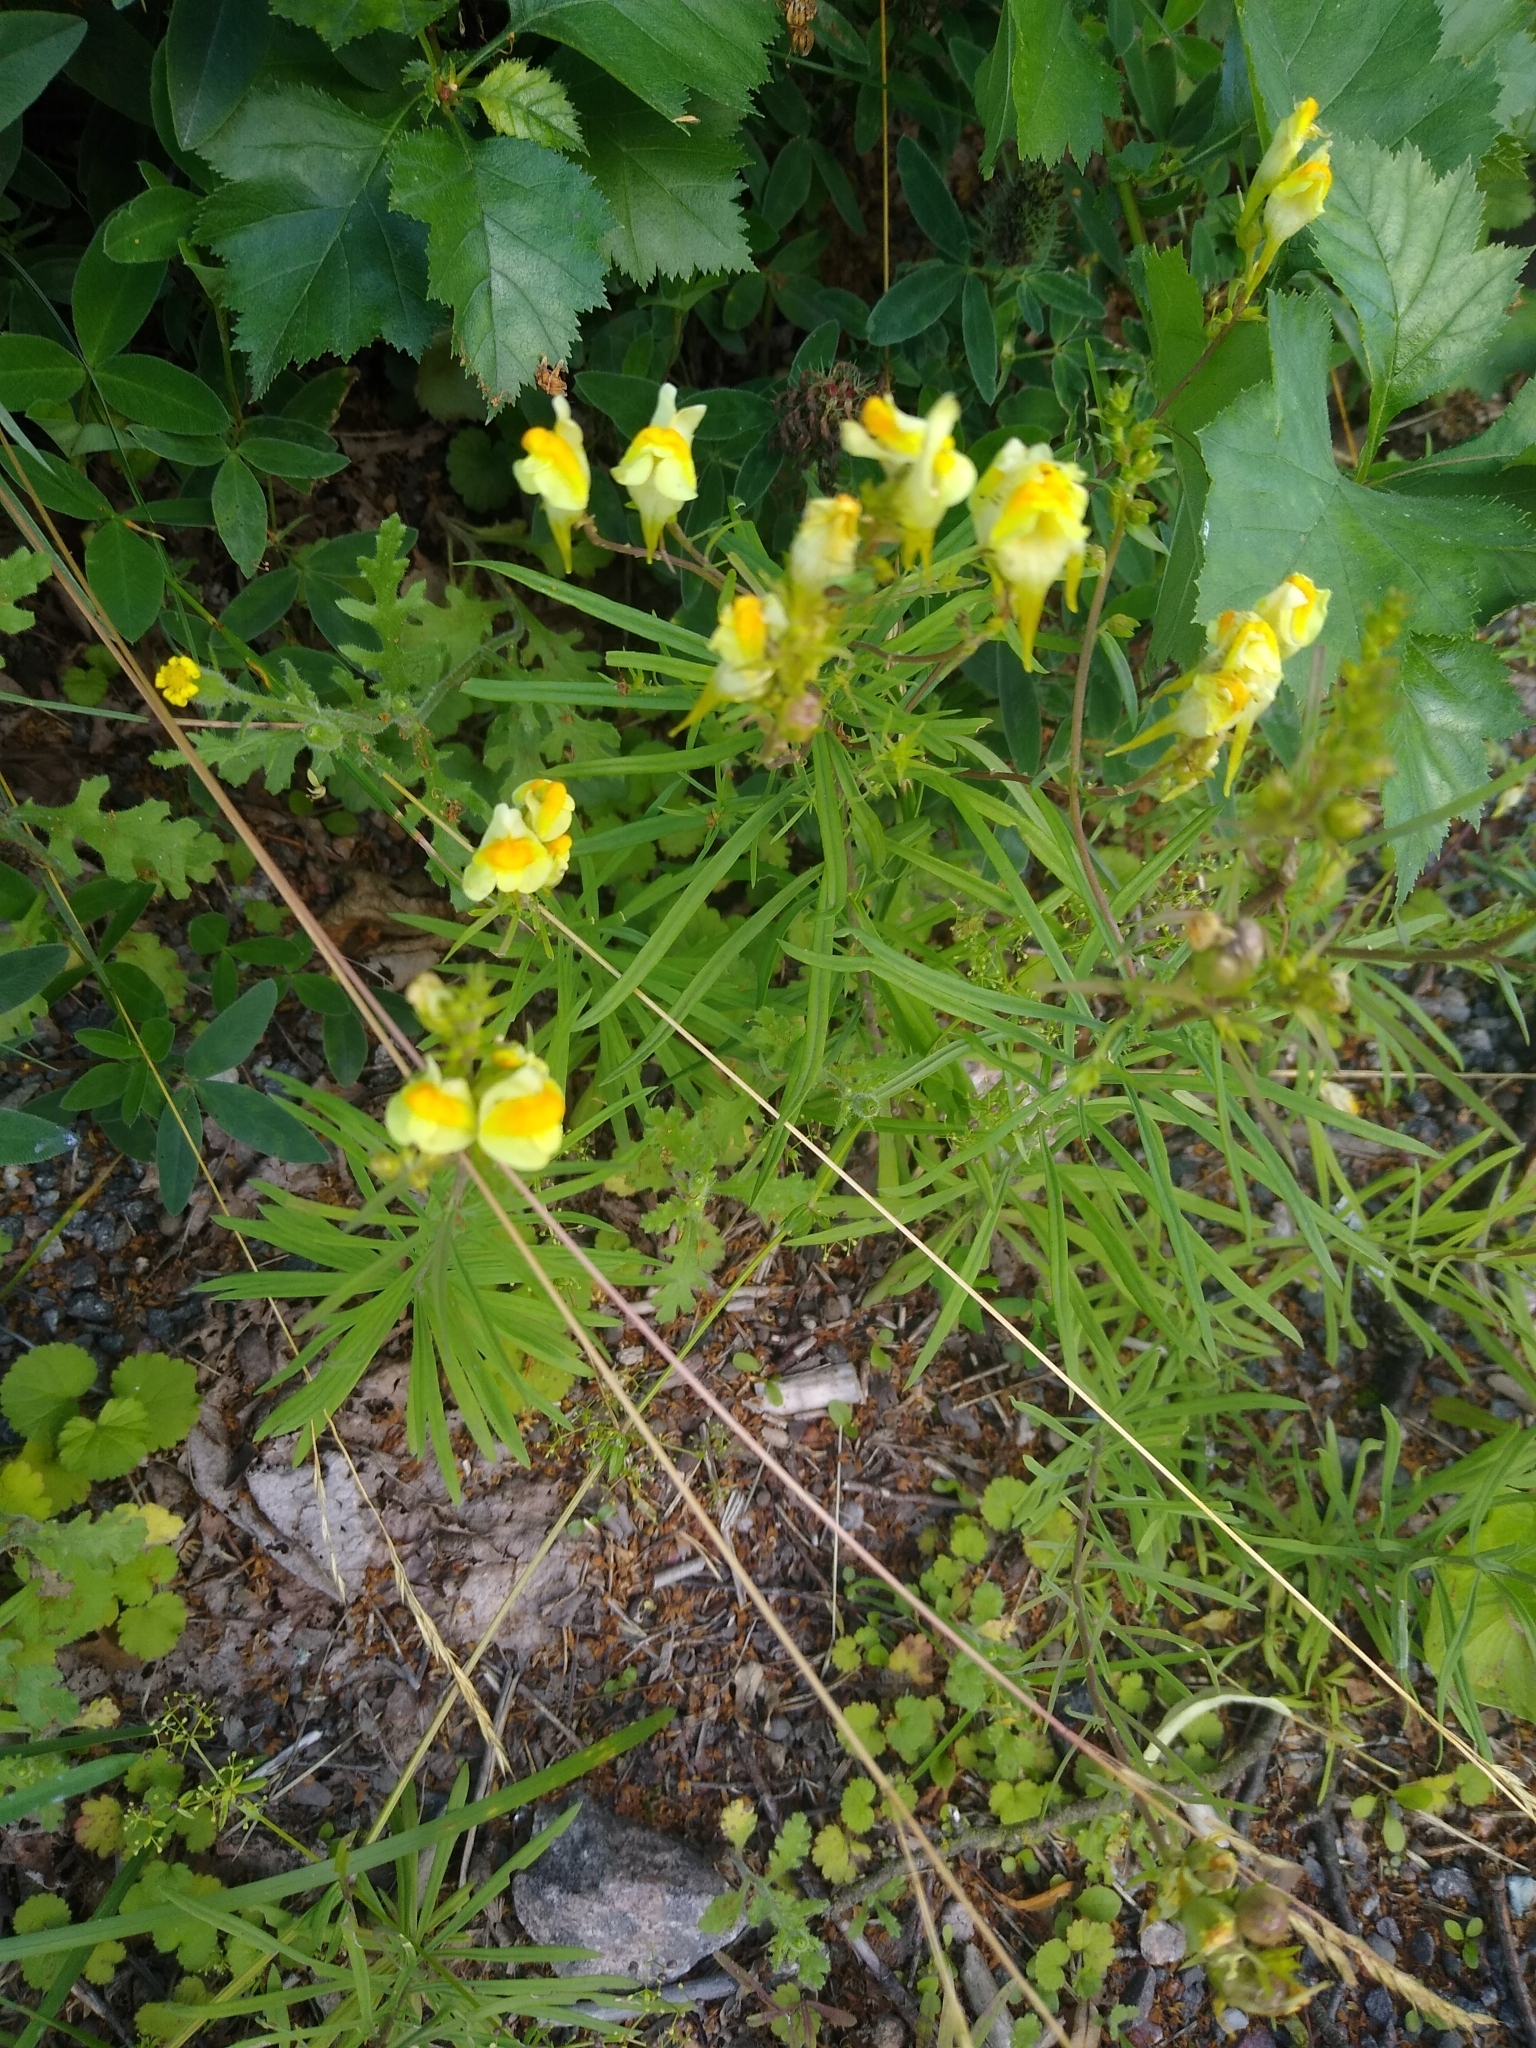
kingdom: Plantae
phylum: Tracheophyta
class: Magnoliopsida
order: Lamiales
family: Plantaginaceae
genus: Linaria
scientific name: Linaria vulgaris
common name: Butter and eggs
